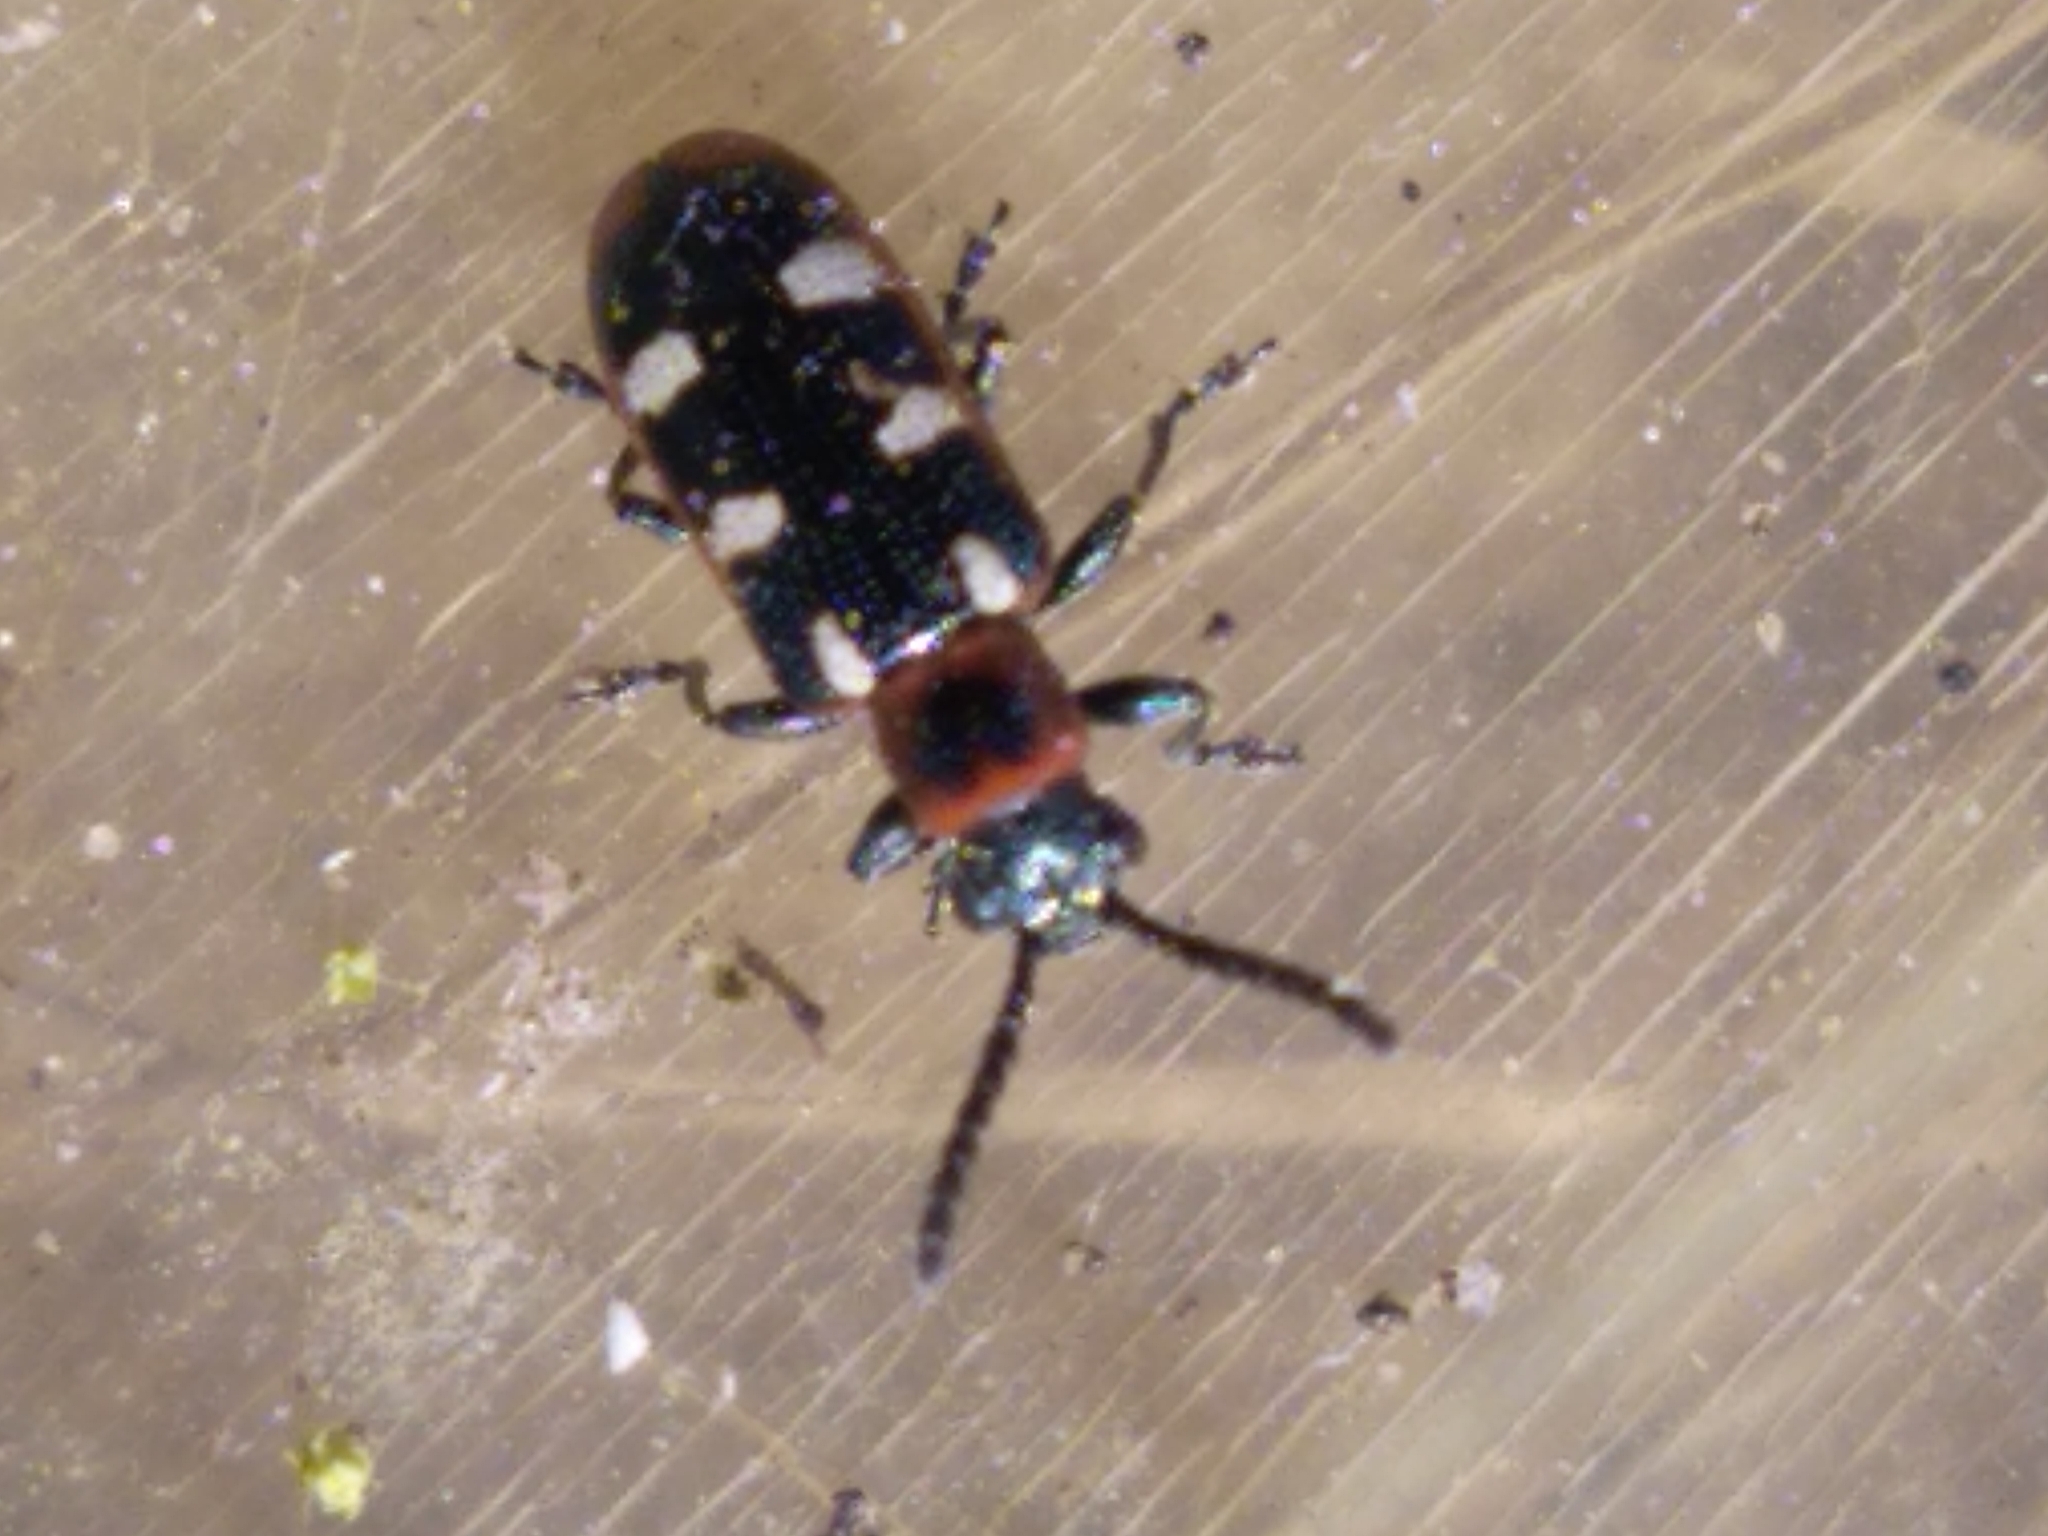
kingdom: Animalia
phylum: Arthropoda
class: Insecta
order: Coleoptera
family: Chrysomelidae
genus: Crioceris
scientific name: Crioceris asparagi
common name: Asparagus beetle
